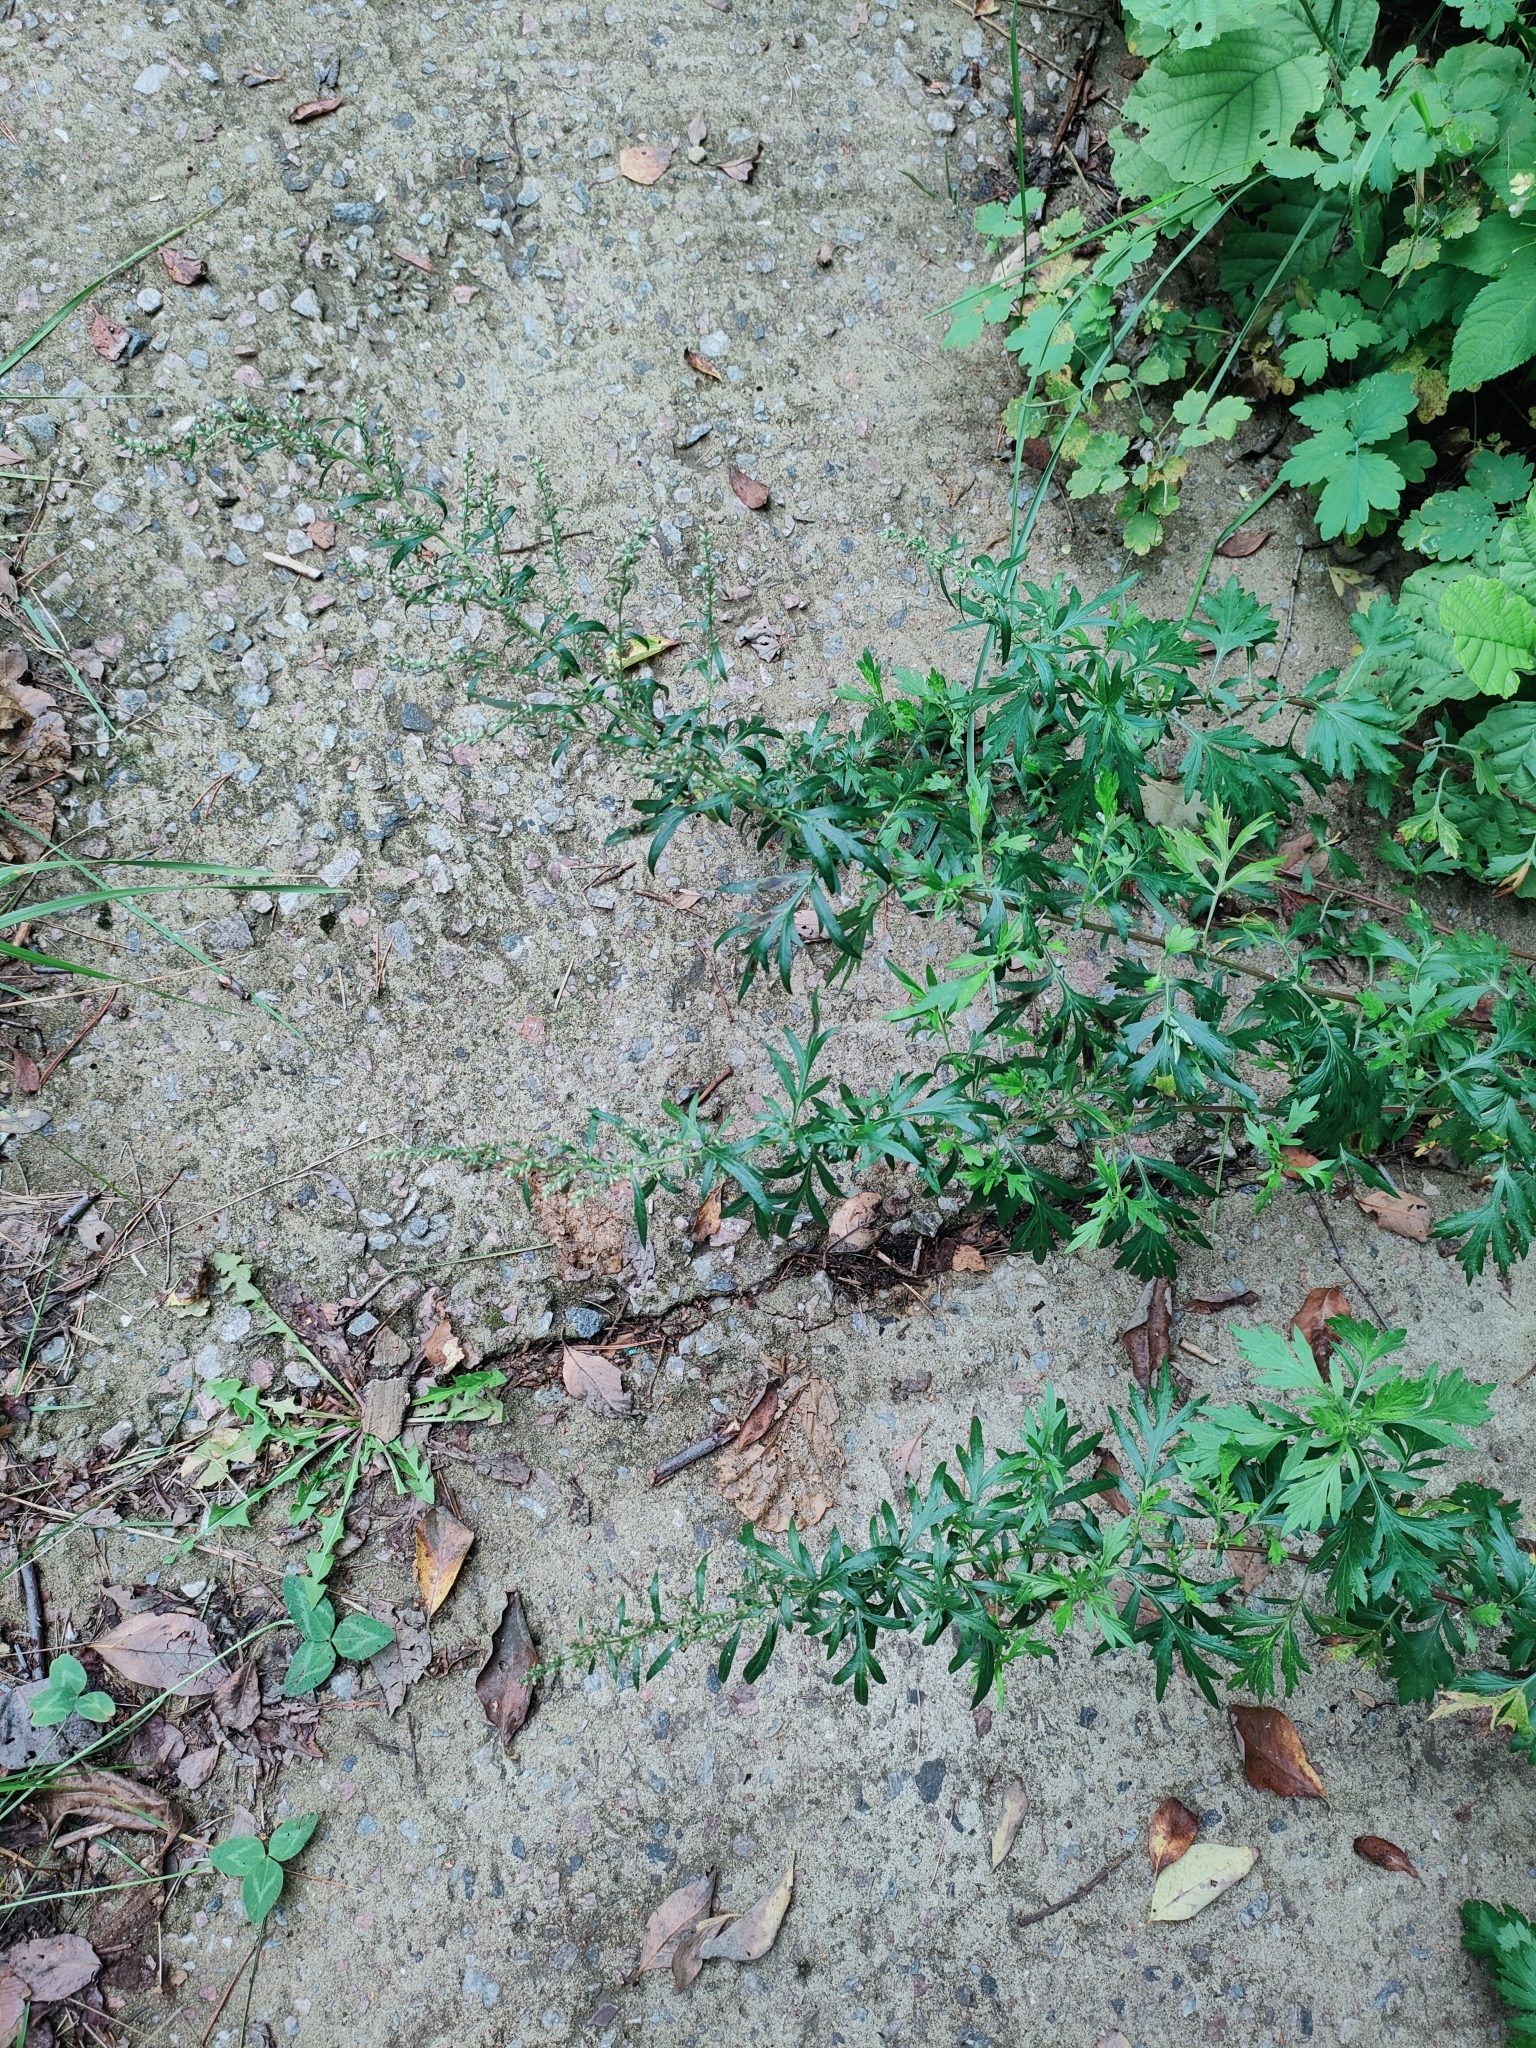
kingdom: Plantae
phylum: Tracheophyta
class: Magnoliopsida
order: Asterales
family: Asteraceae
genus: Artemisia
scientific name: Artemisia vulgaris
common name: Mugwort
